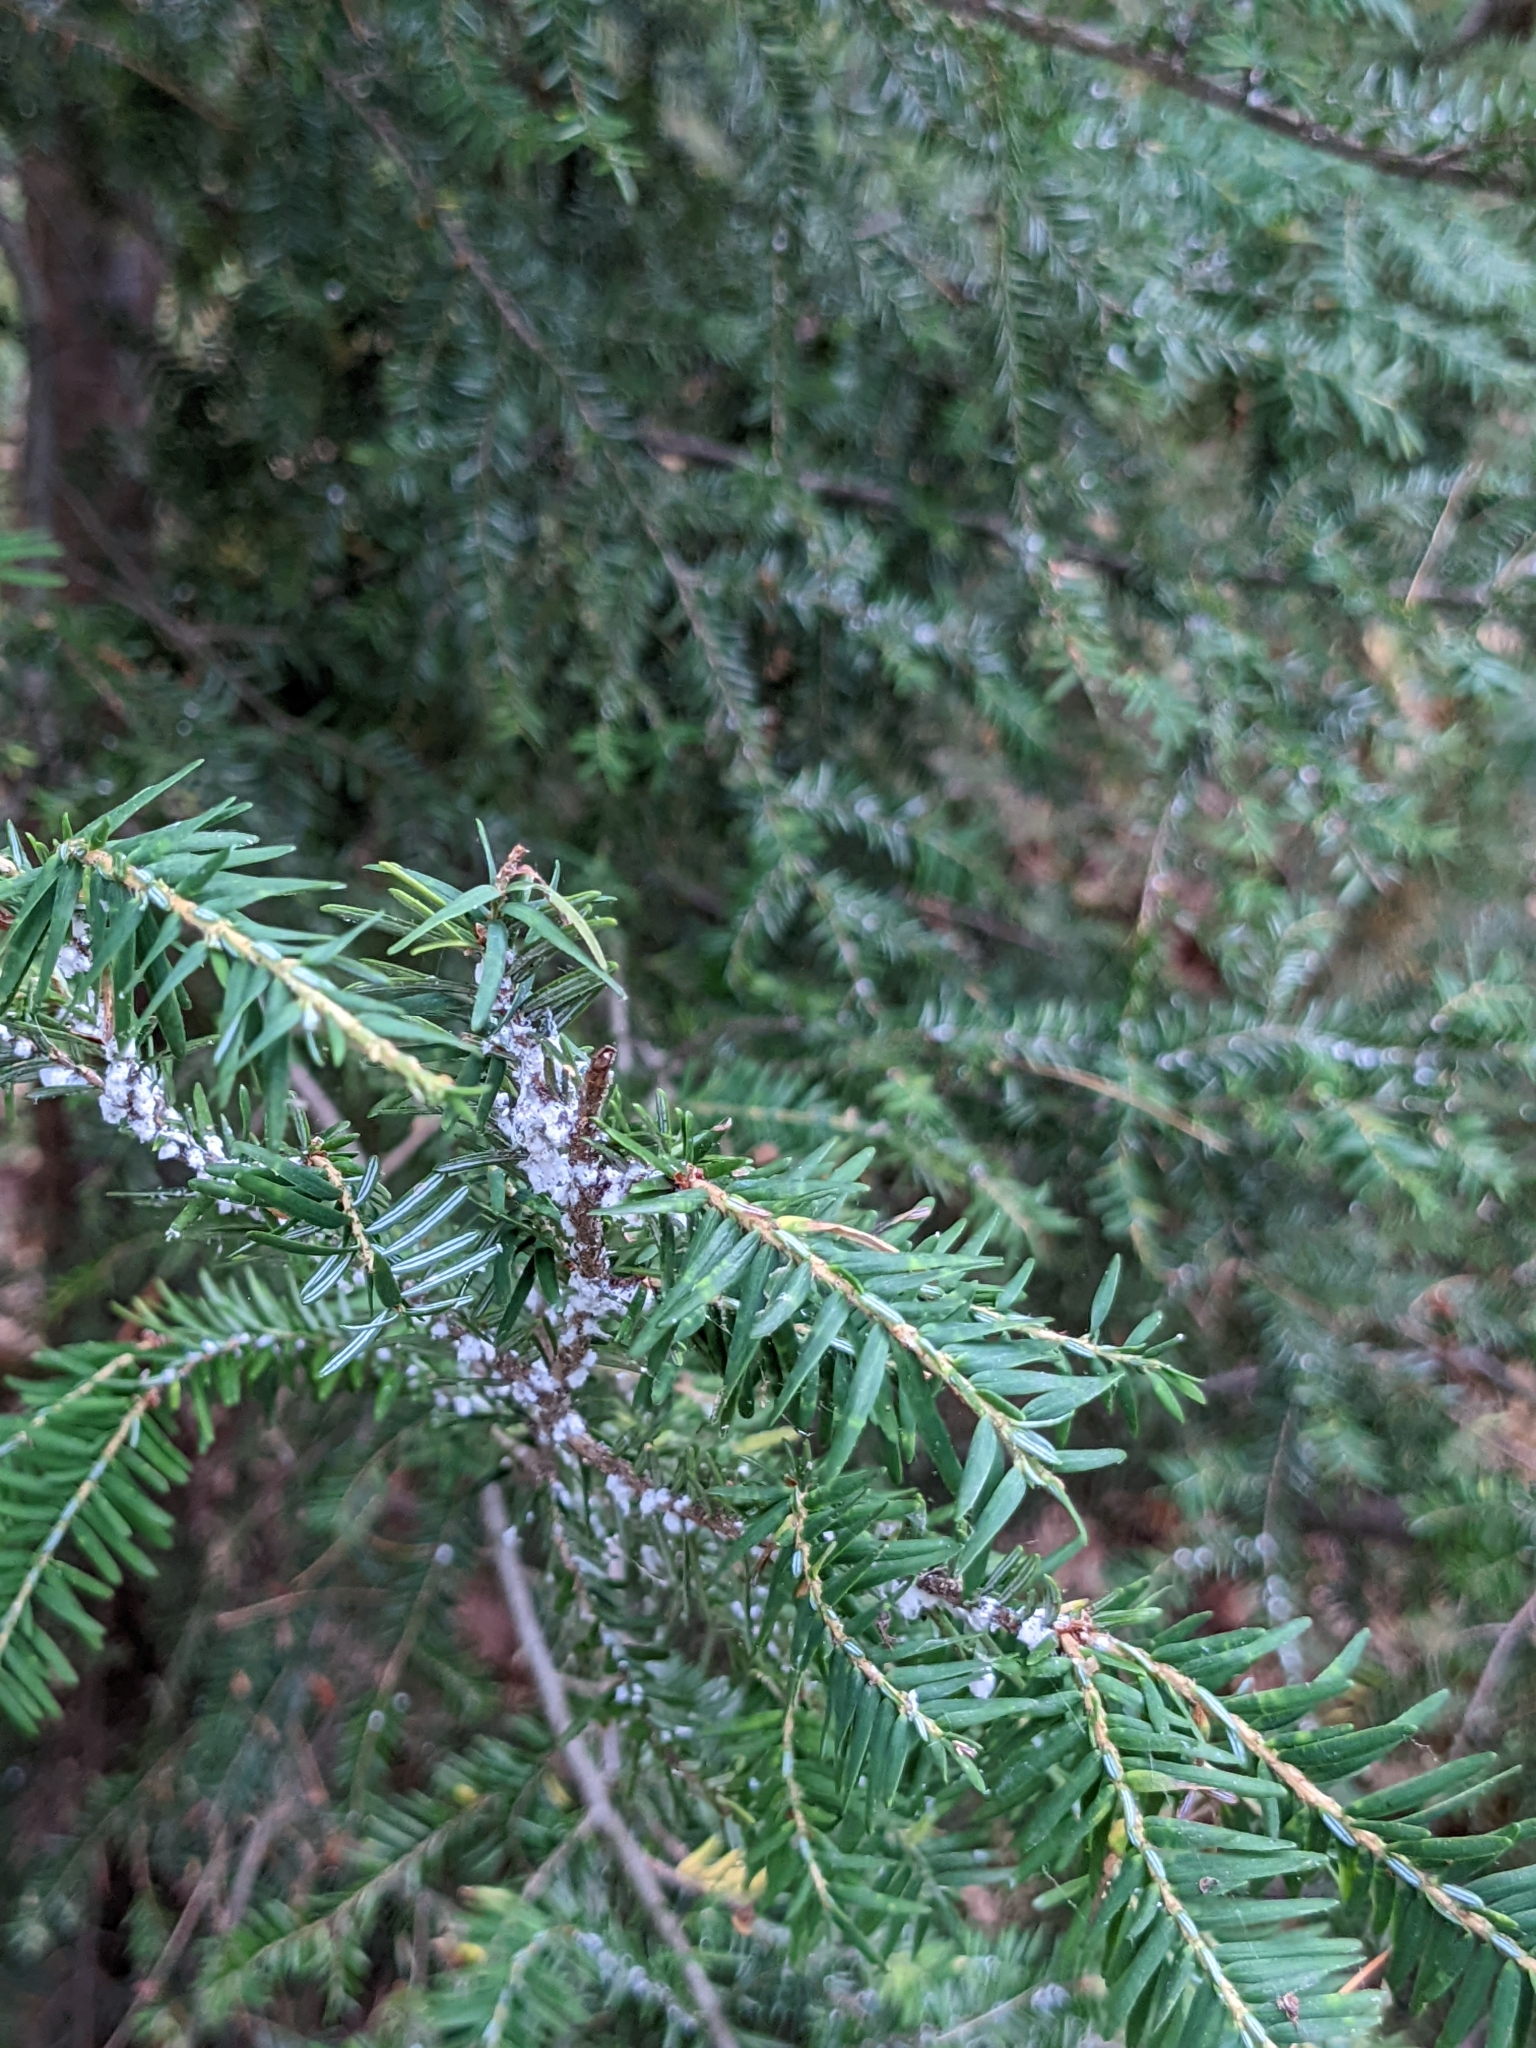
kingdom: Animalia
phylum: Arthropoda
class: Insecta
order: Hemiptera
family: Adelgidae
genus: Adelges
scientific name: Adelges tsugae
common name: Hemlock woolly adelgid
